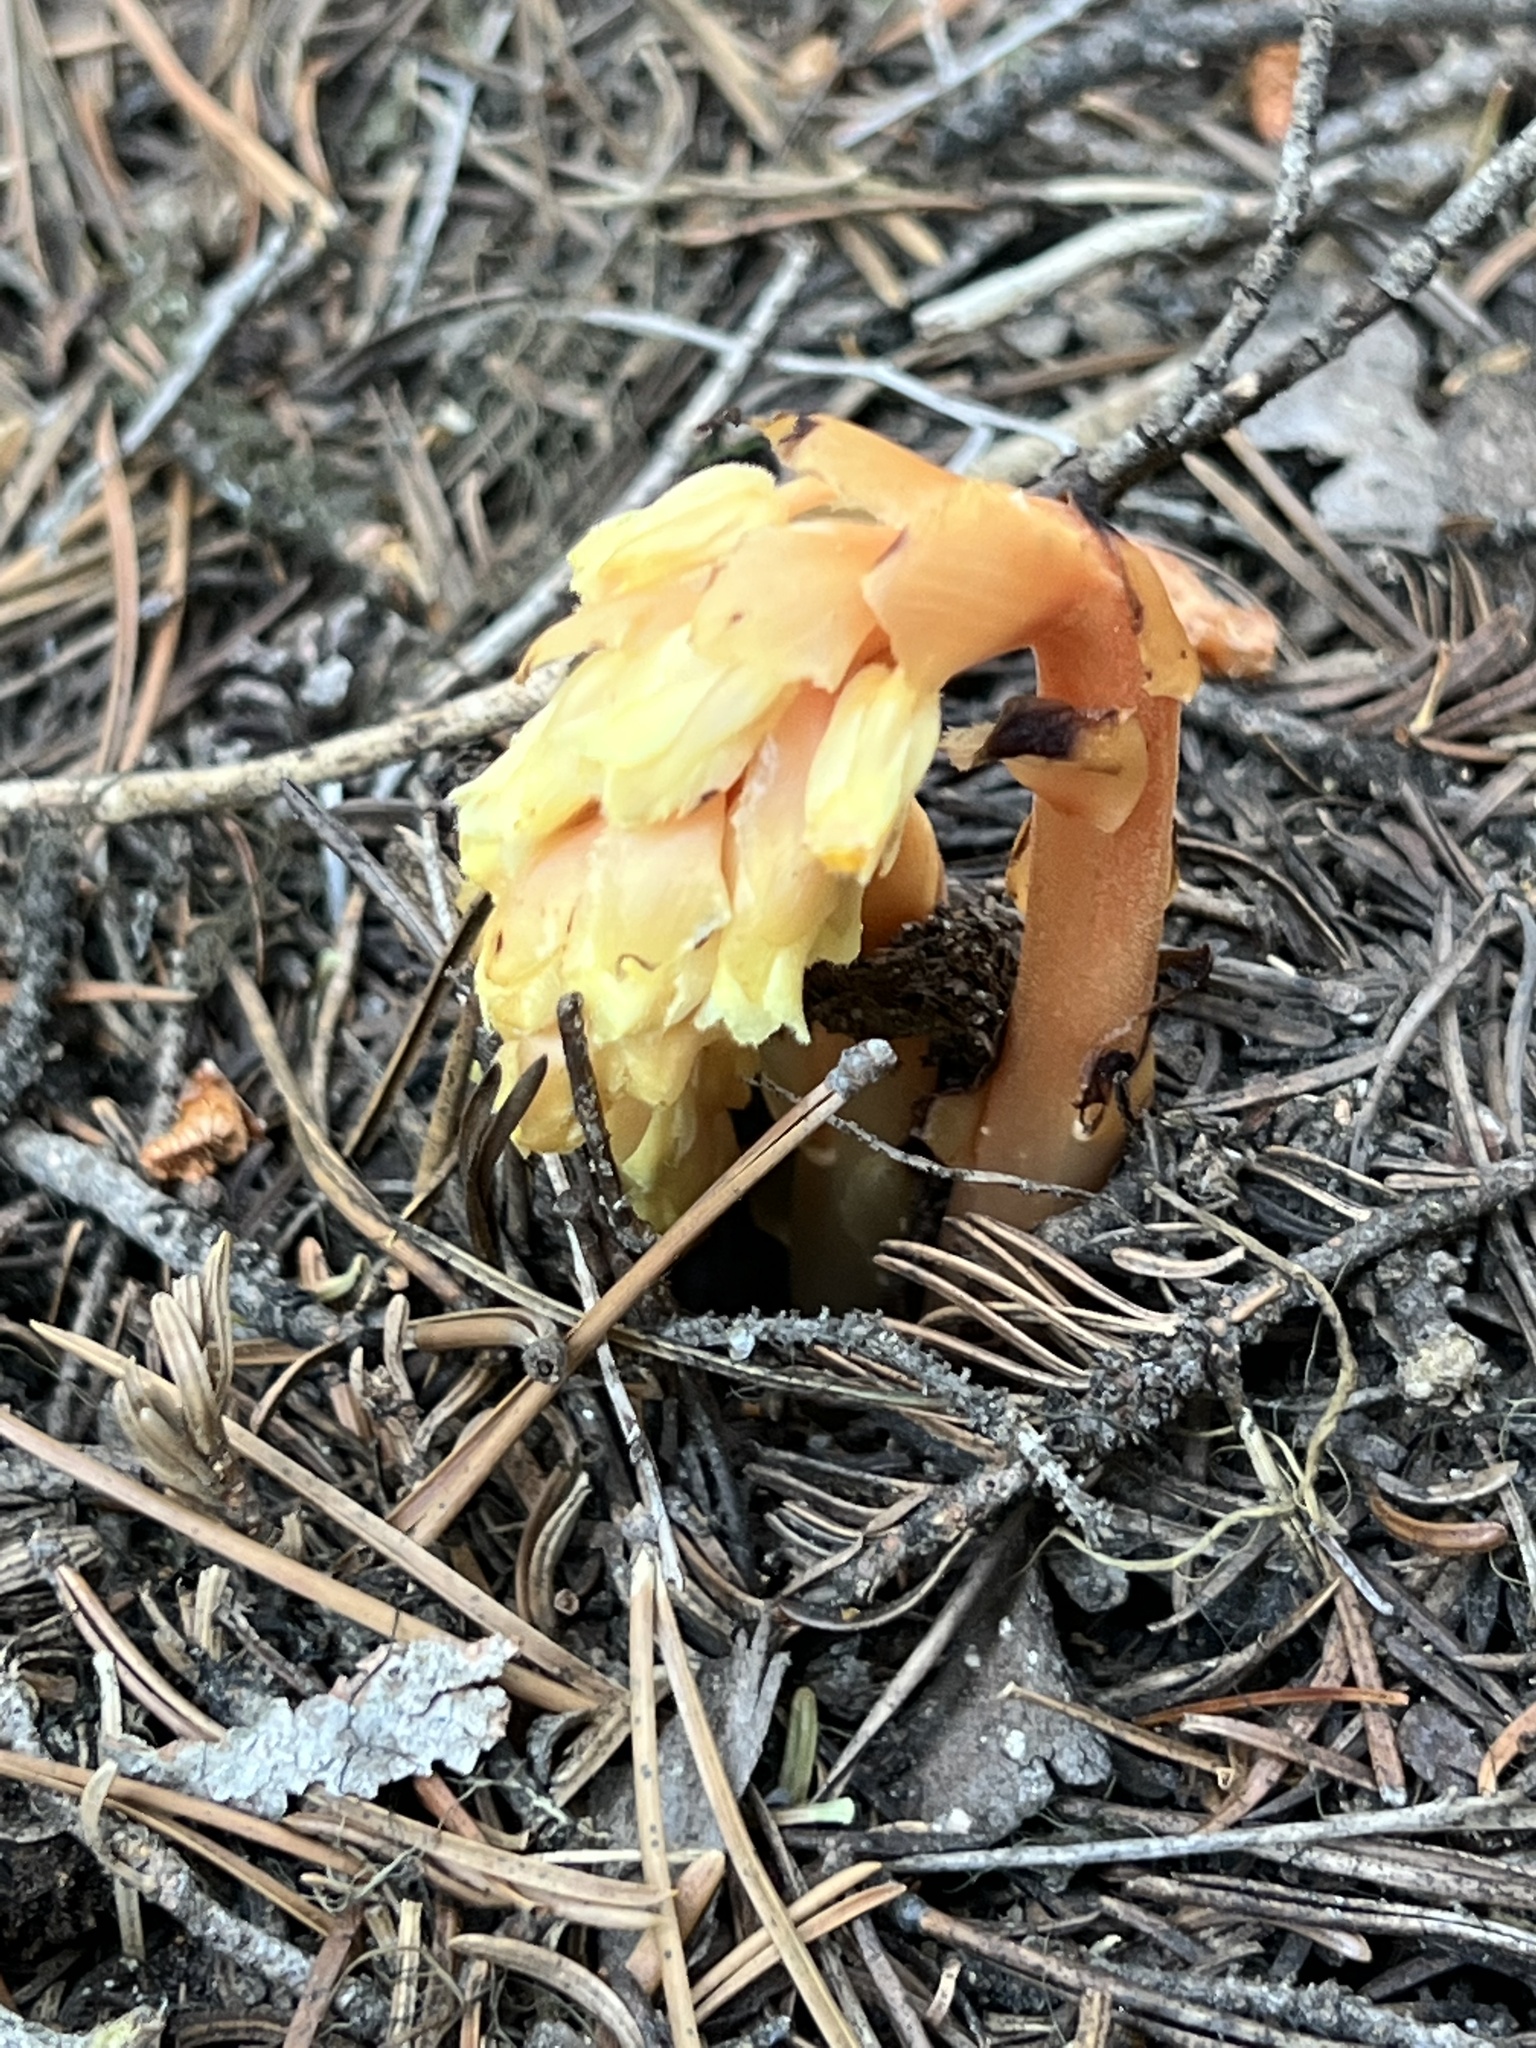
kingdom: Plantae
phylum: Tracheophyta
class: Magnoliopsida
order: Ericales
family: Ericaceae
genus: Hypopitys
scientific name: Hypopitys monotropa
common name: Yellow bird's-nest
